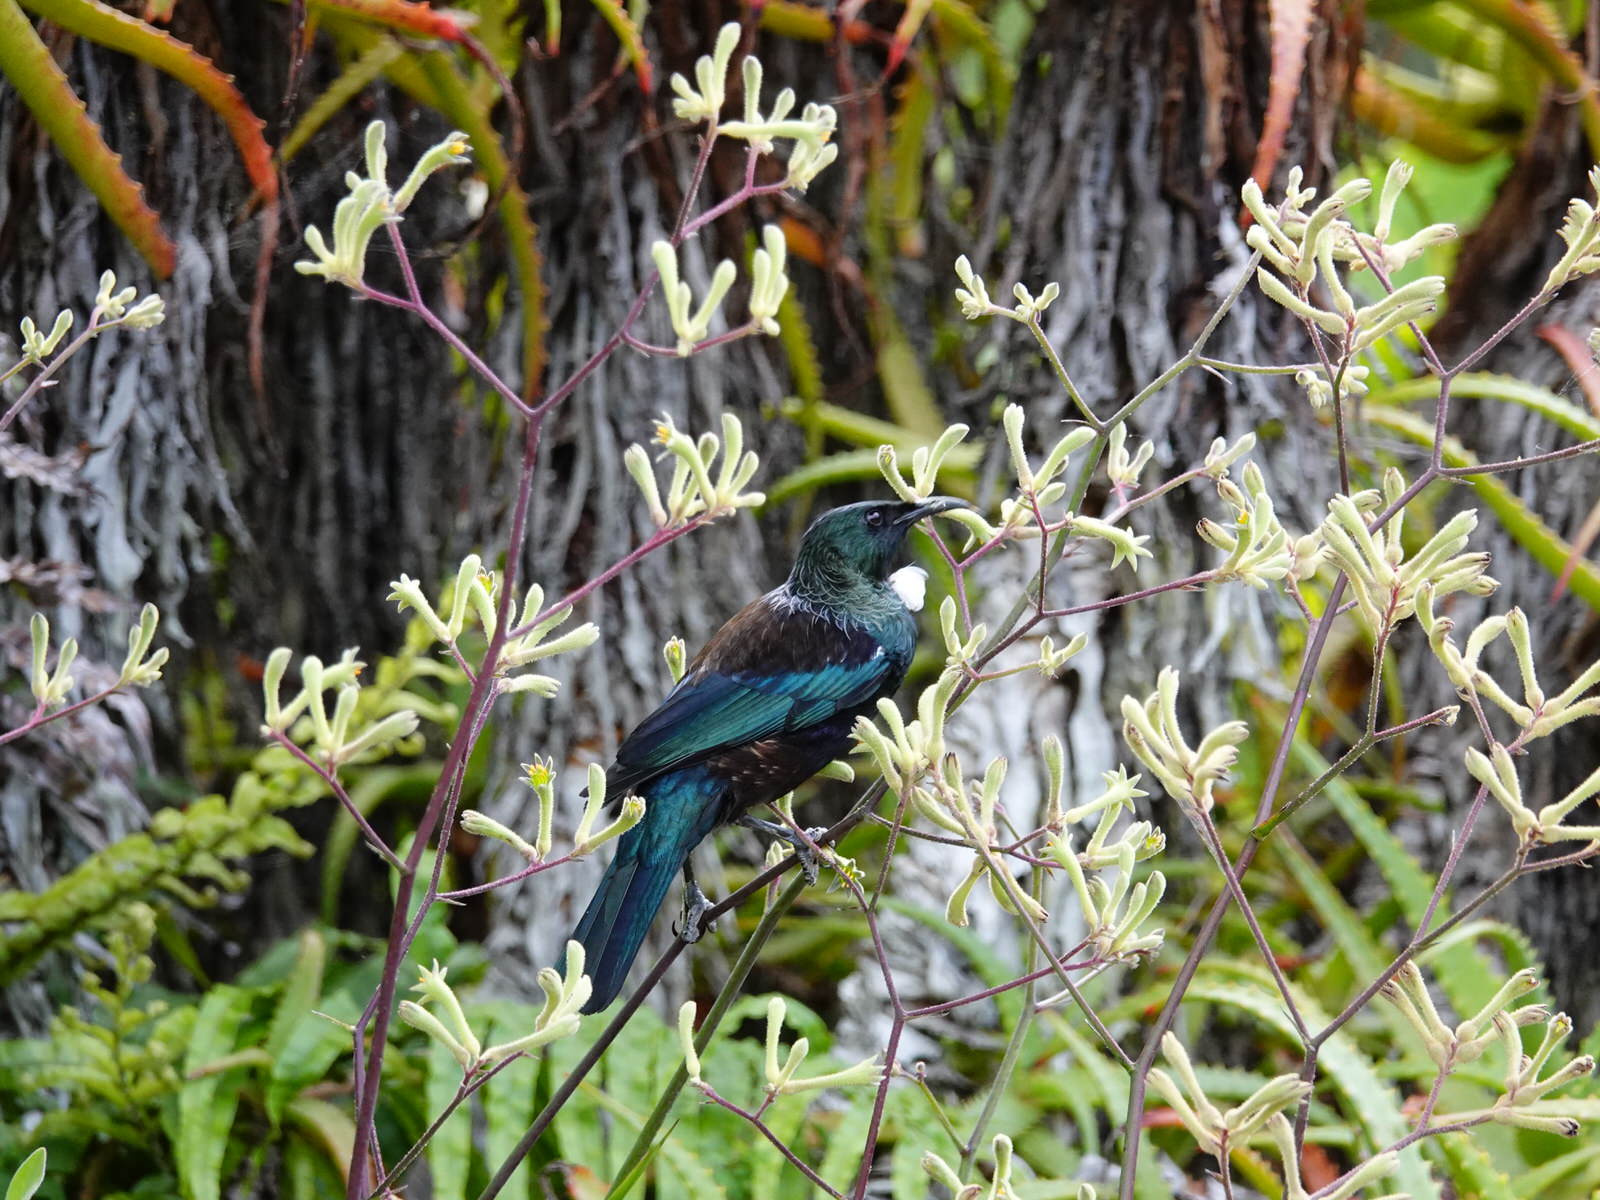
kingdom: Animalia
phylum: Chordata
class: Aves
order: Passeriformes
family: Meliphagidae
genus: Prosthemadera
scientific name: Prosthemadera novaeseelandiae
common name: Tui
